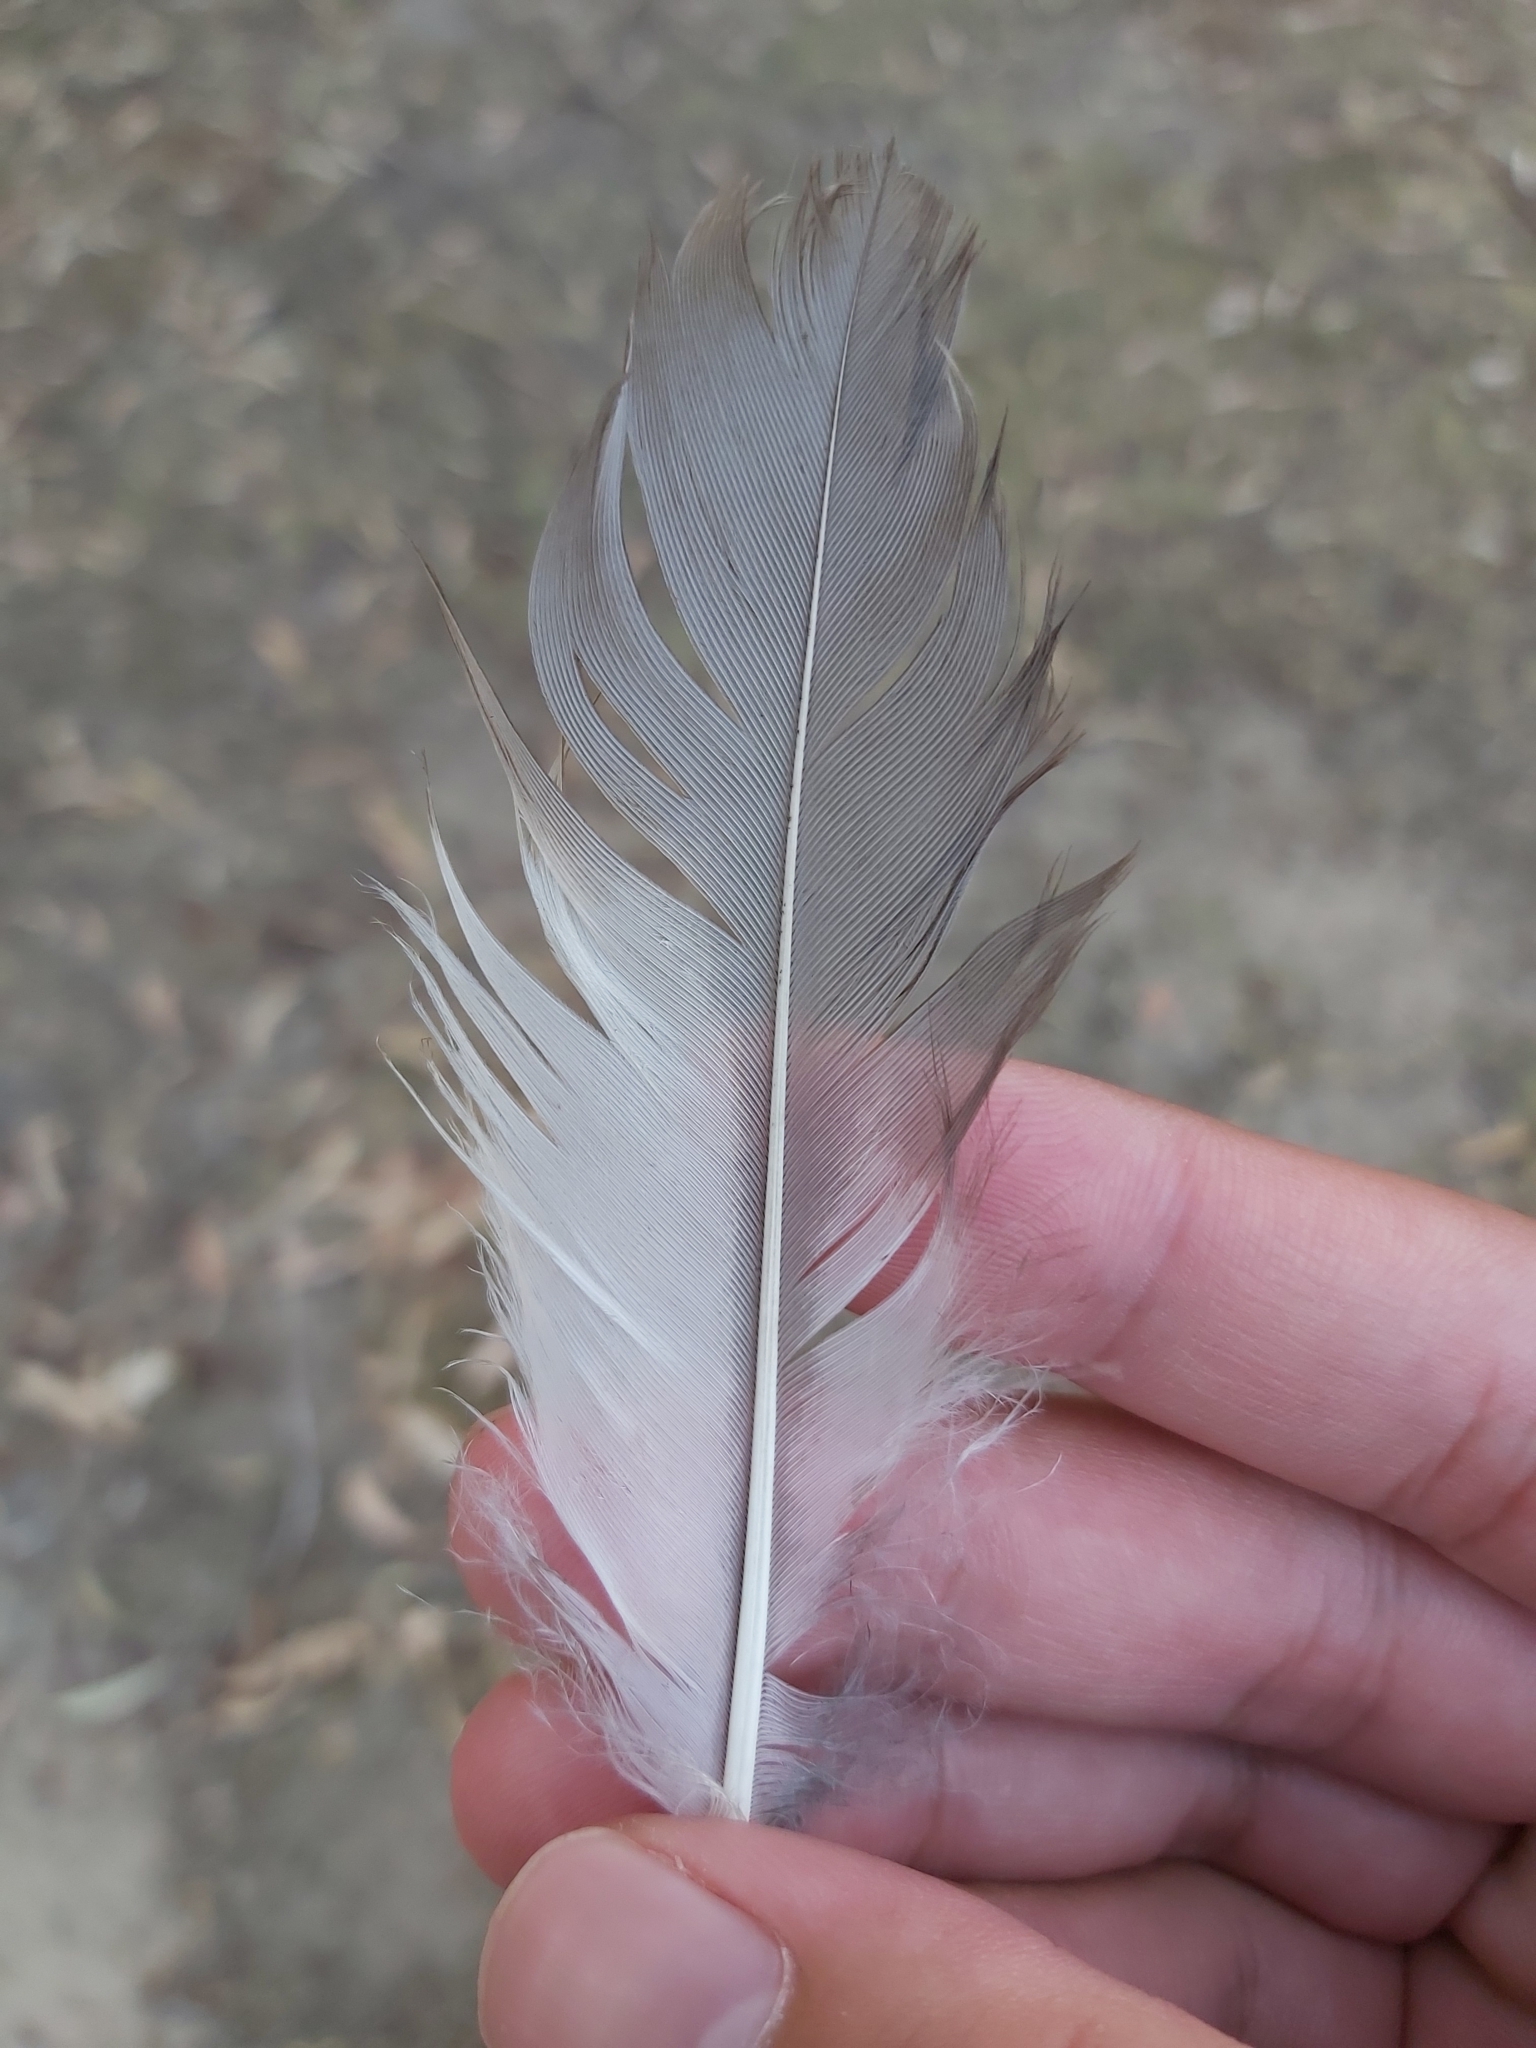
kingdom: Animalia
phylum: Chordata
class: Aves
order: Coraciiformes
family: Alcedinidae
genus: Dacelo
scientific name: Dacelo novaeguineae
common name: Laughing kookaburra
